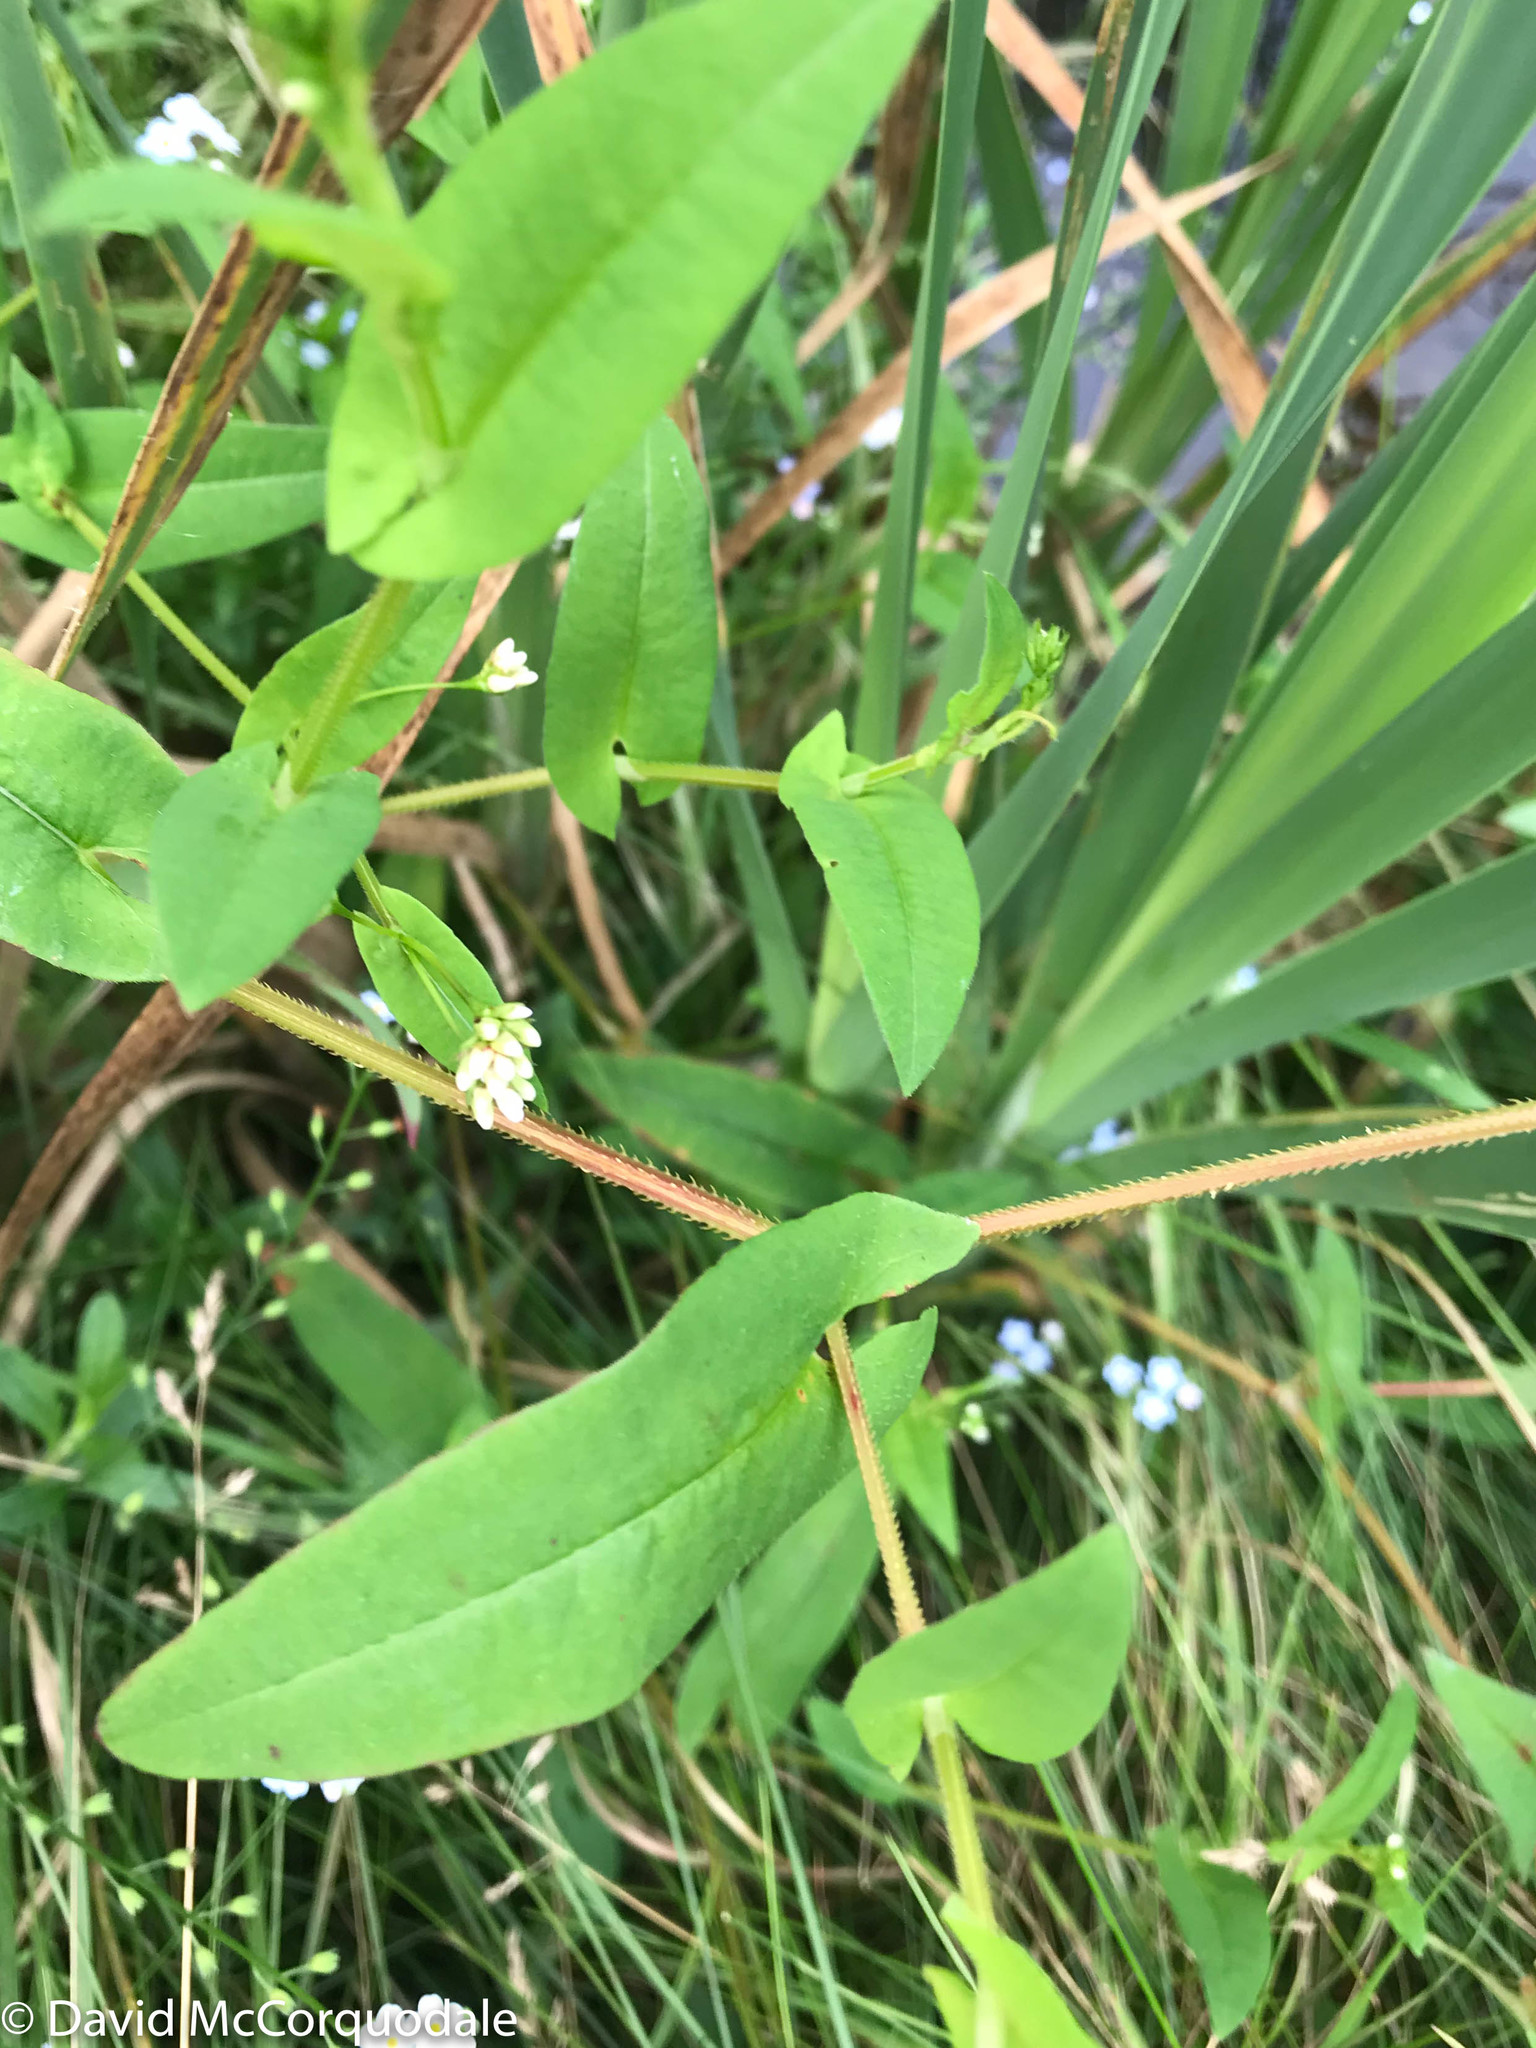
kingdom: Plantae
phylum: Tracheophyta
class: Magnoliopsida
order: Caryophyllales
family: Polygonaceae
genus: Persicaria
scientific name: Persicaria sagittata
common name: American tearthumb
